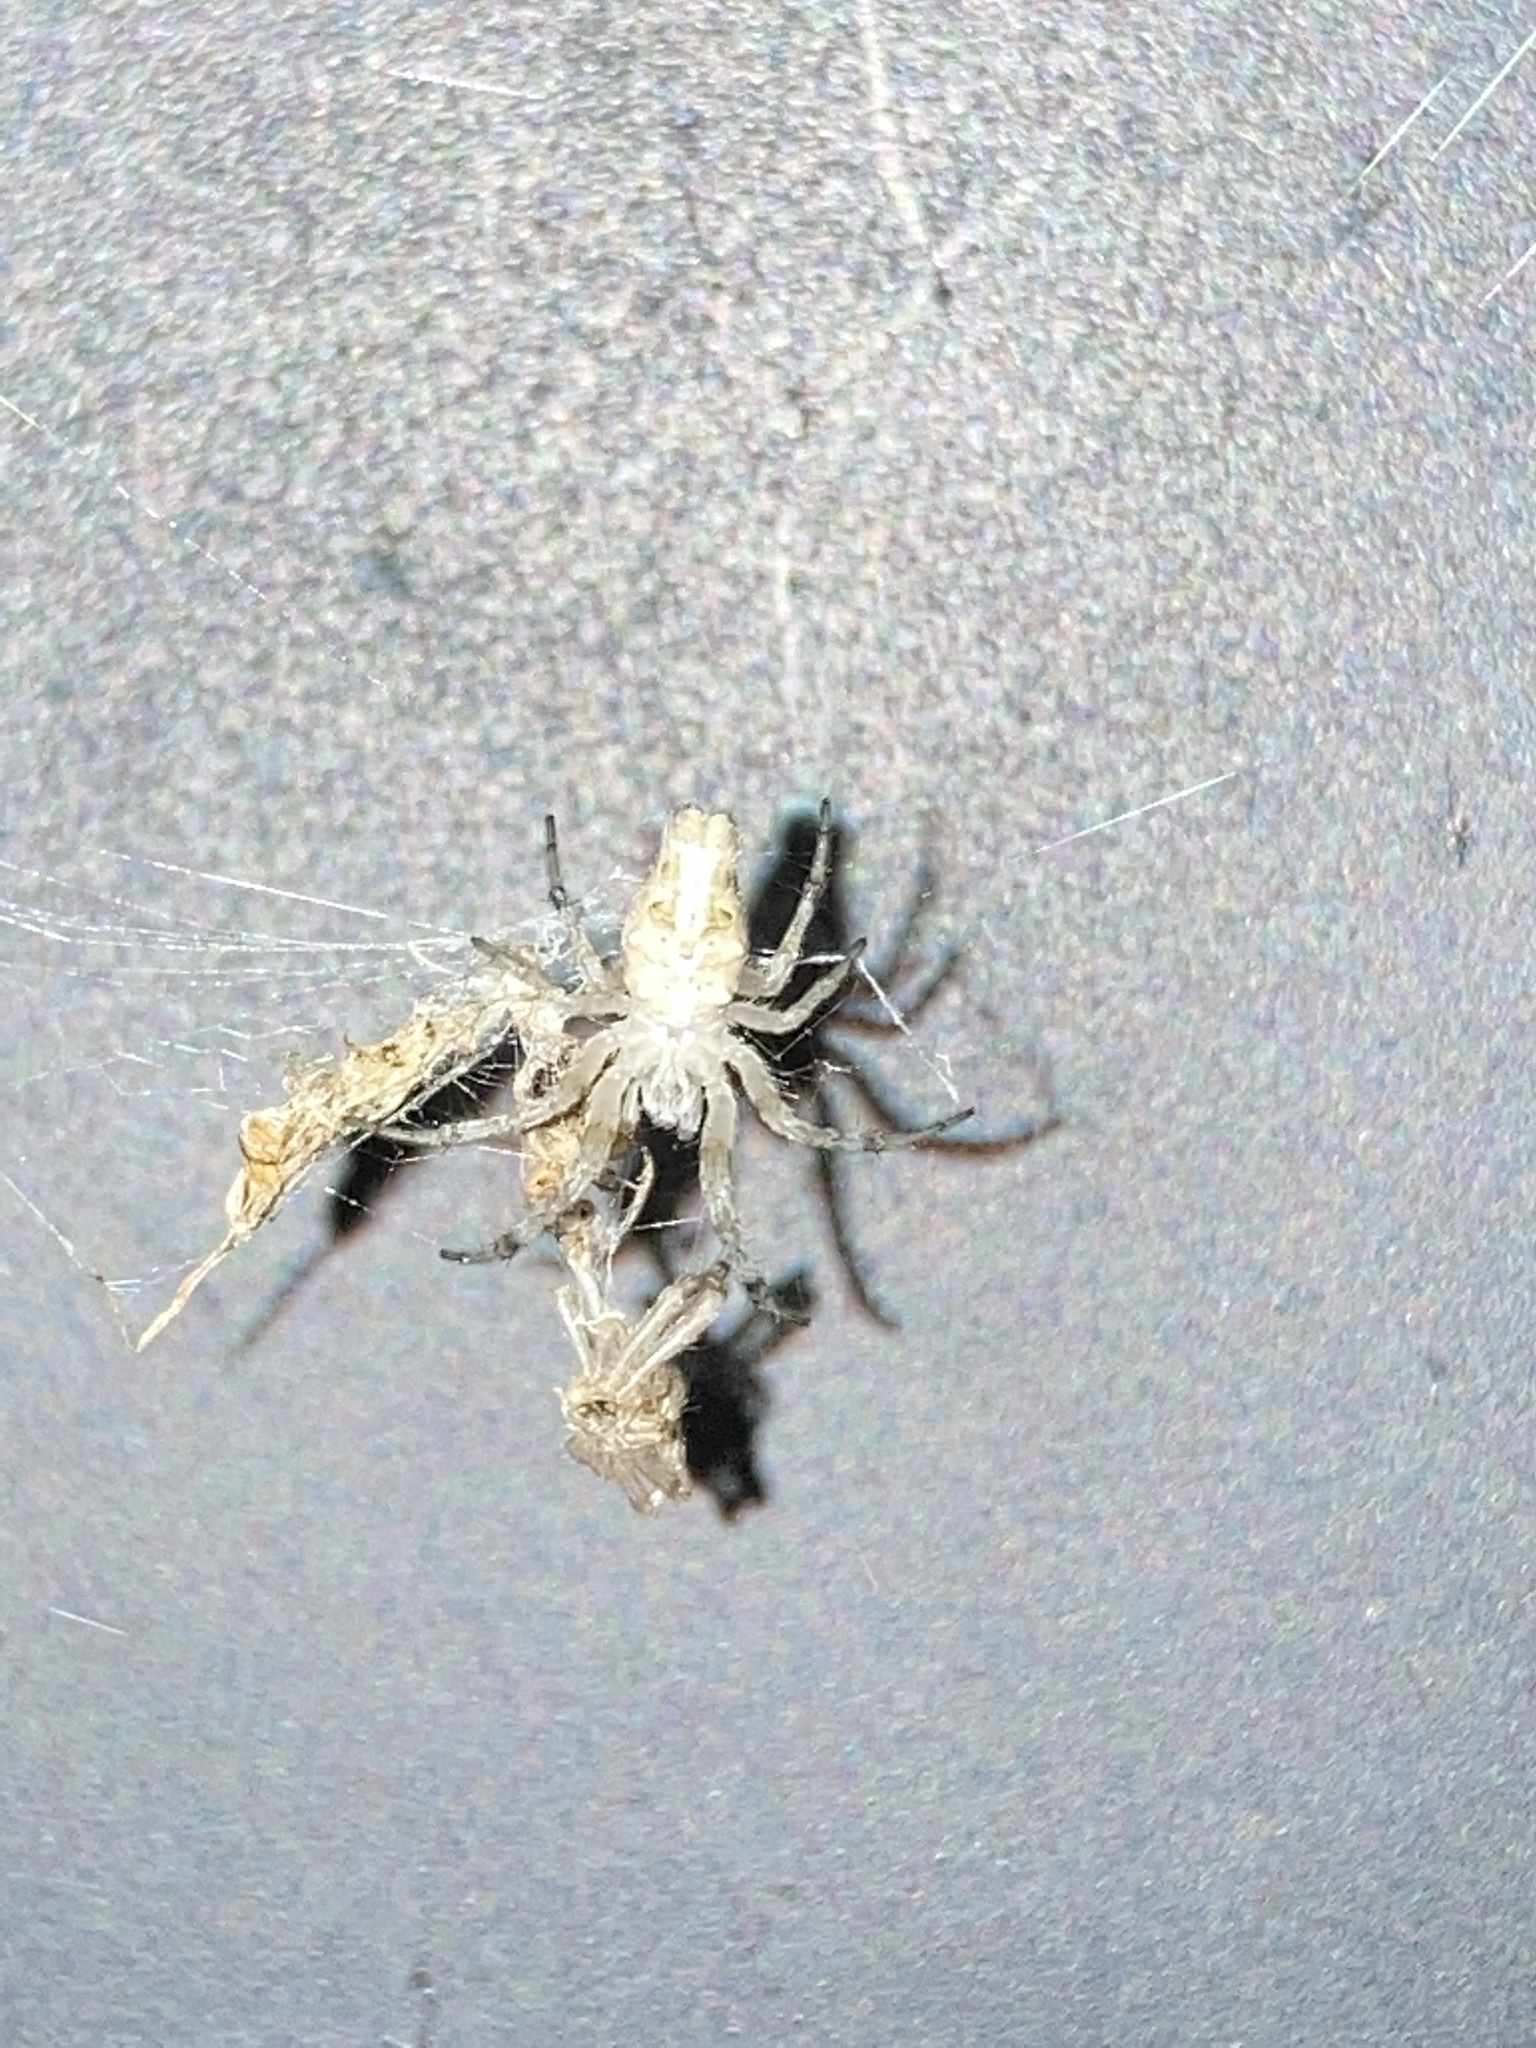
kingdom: Animalia
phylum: Arthropoda
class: Arachnida
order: Araneae
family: Araneidae
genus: Allocyclosa
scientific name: Allocyclosa bifurca
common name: Orb weavers
